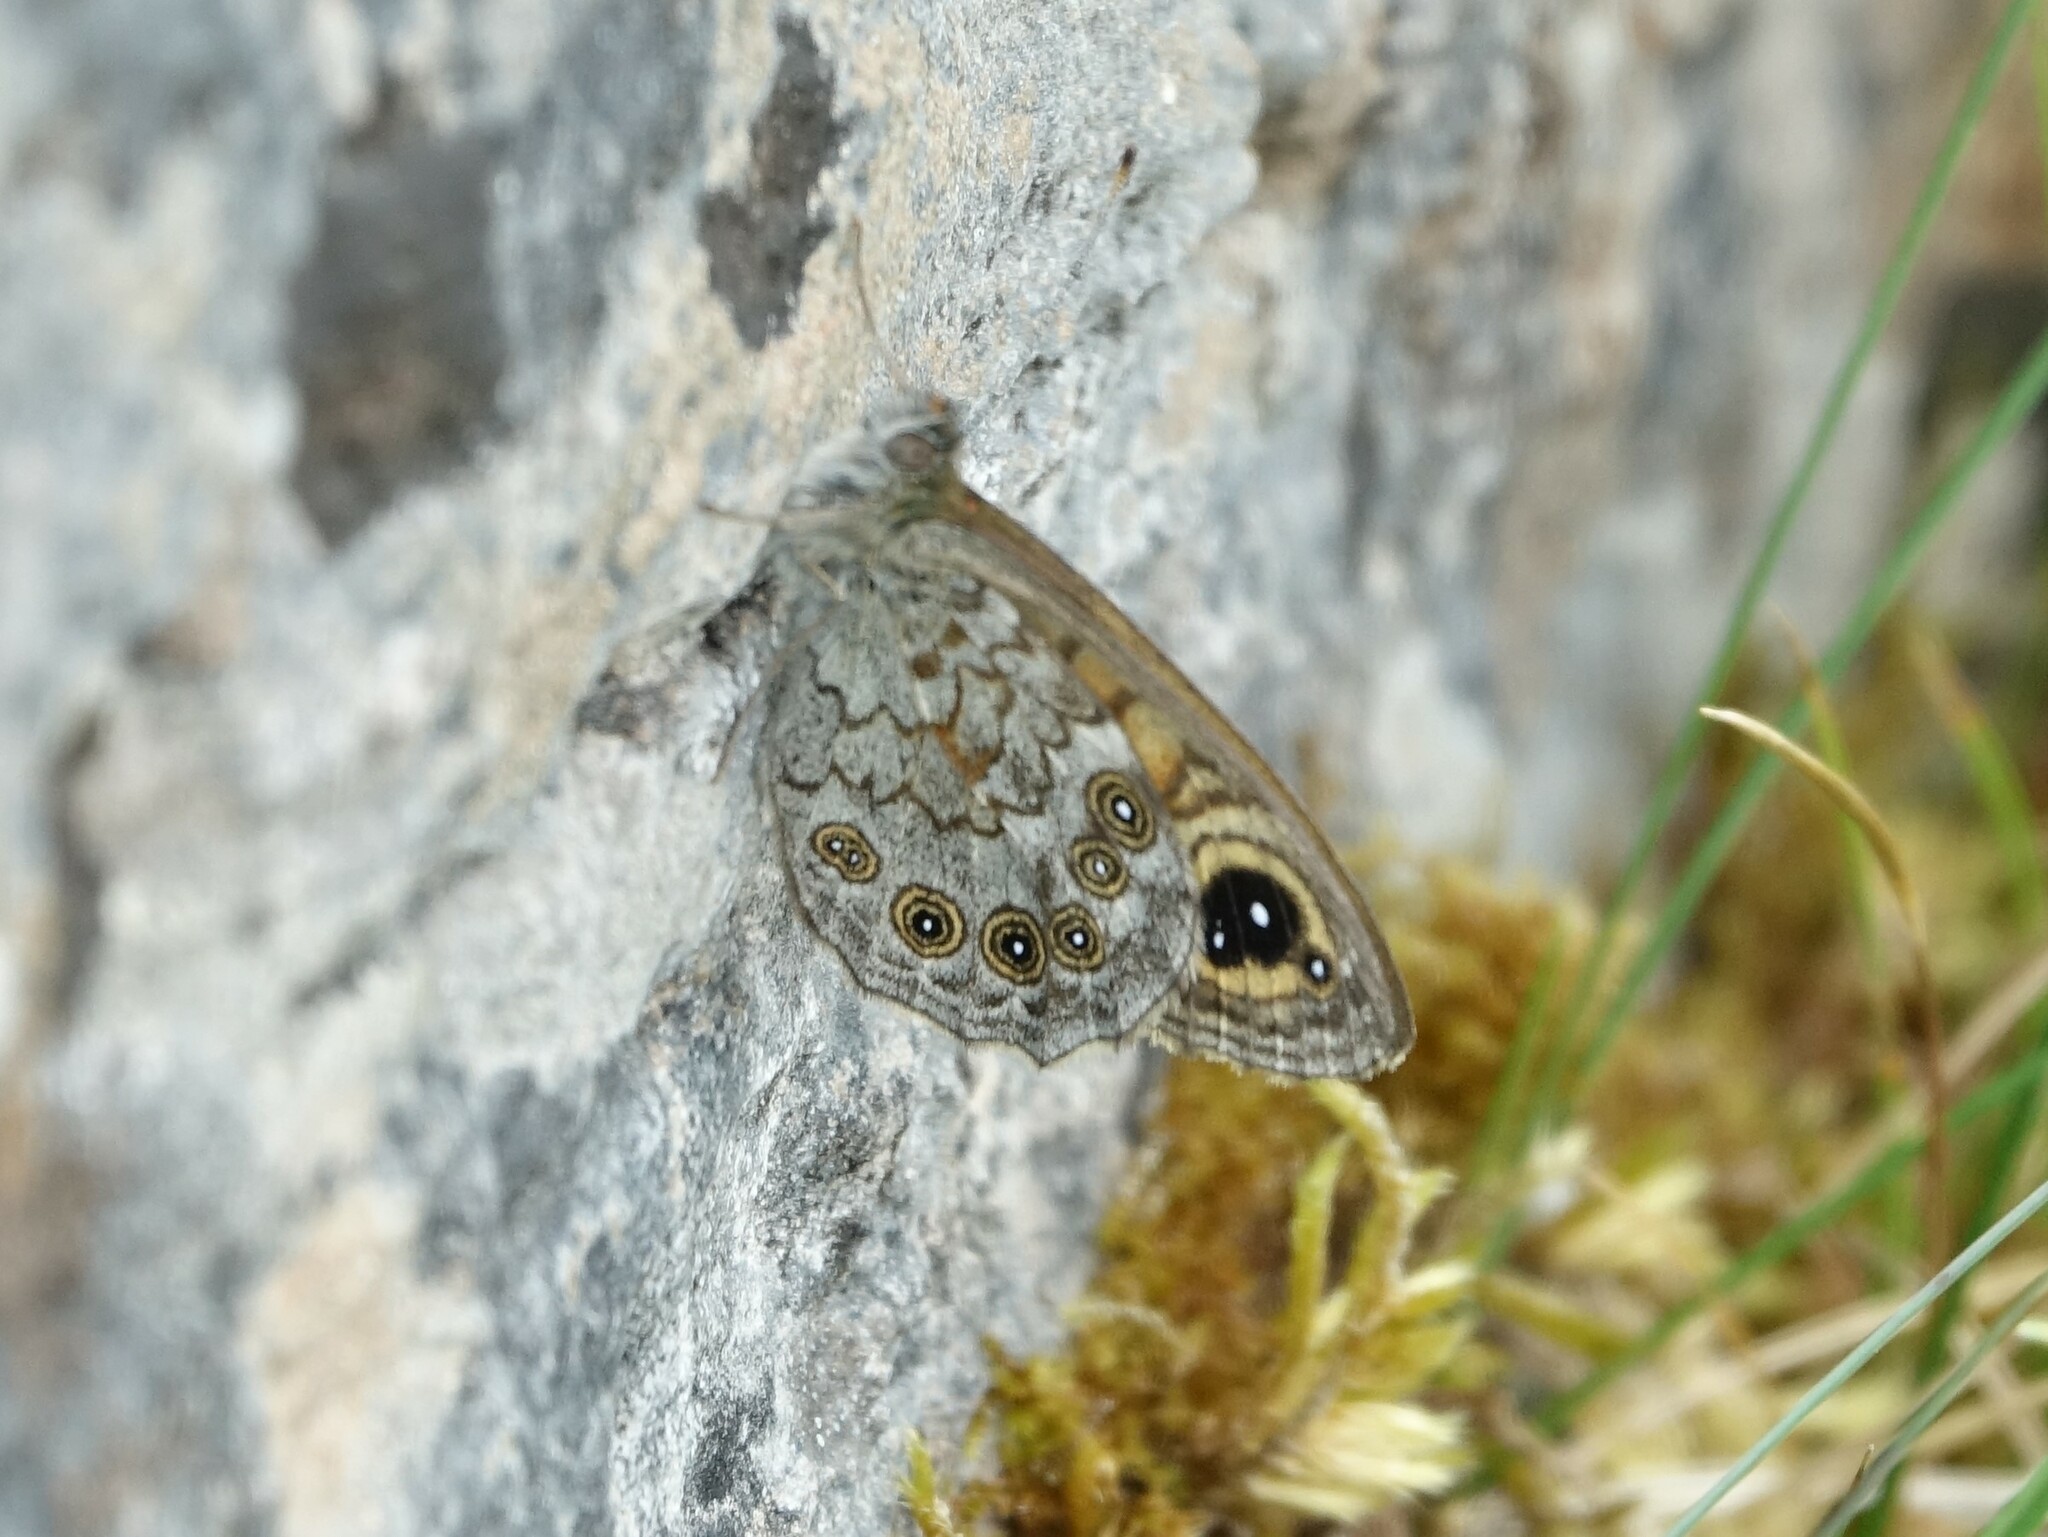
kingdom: Animalia
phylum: Arthropoda
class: Insecta
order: Lepidoptera
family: Nymphalidae
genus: Pararge
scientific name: Pararge Lasiommata maera
